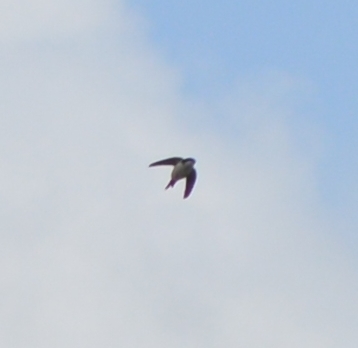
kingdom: Animalia
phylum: Chordata
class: Aves
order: Passeriformes
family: Hirundinidae
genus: Delichon
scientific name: Delichon urbicum
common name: Common house martin
